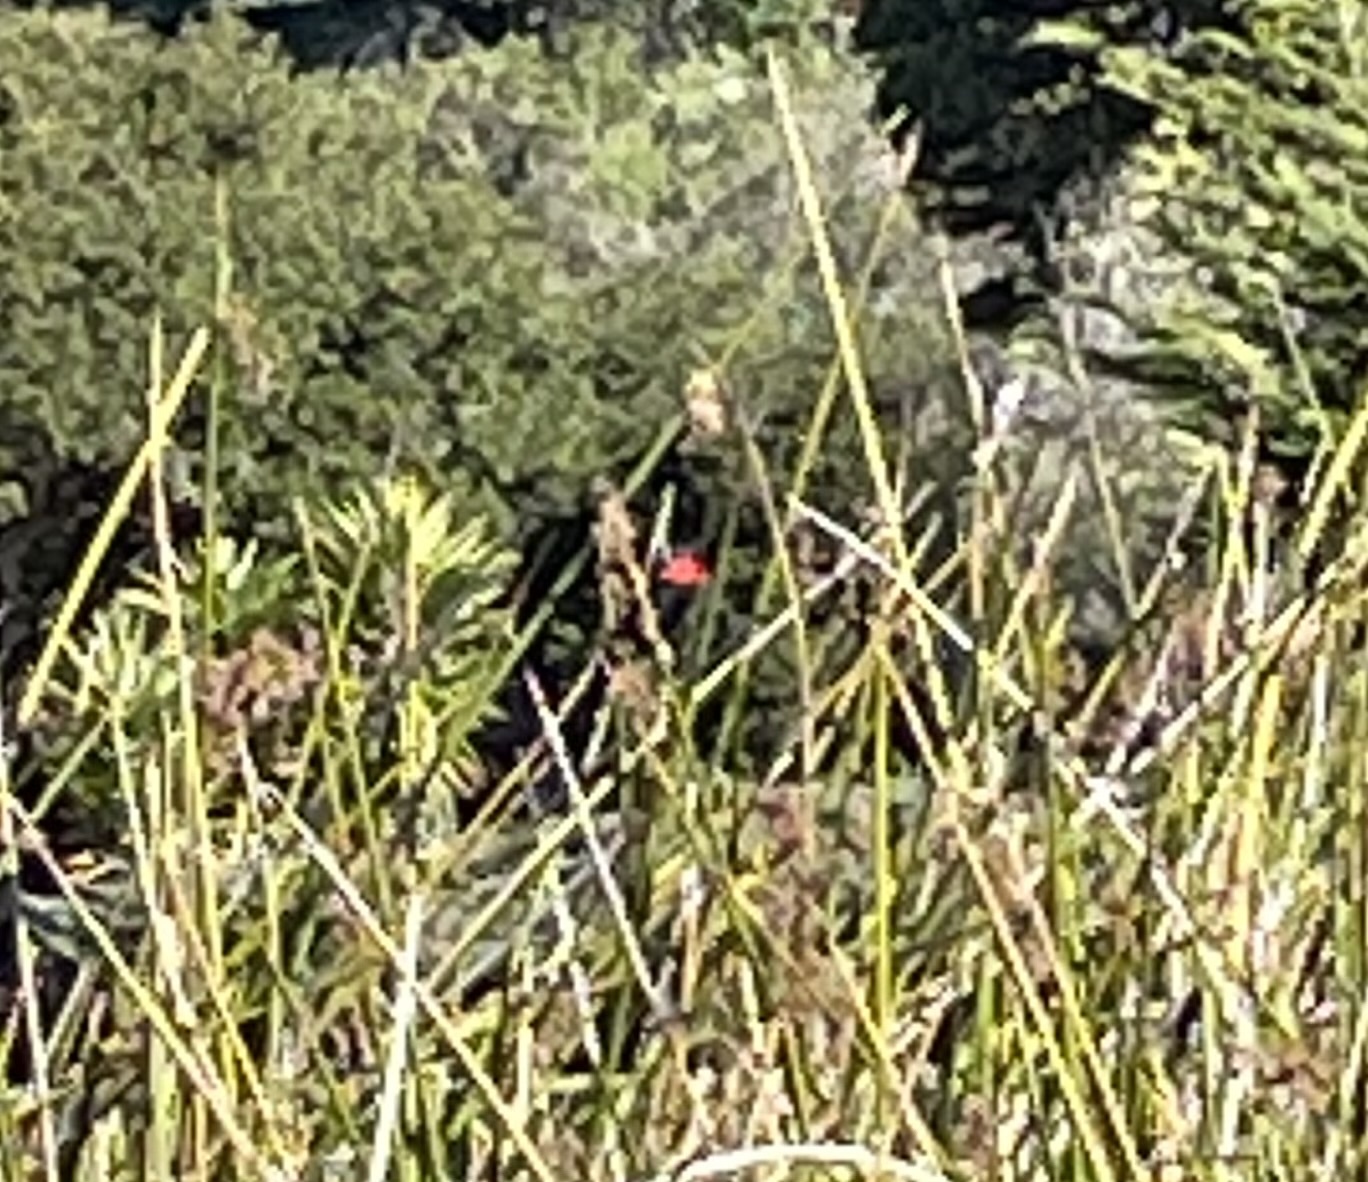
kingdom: Animalia
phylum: Chordata
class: Aves
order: Passeriformes
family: Icteridae
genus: Agelaius
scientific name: Agelaius phoeniceus
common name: Red-winged blackbird
